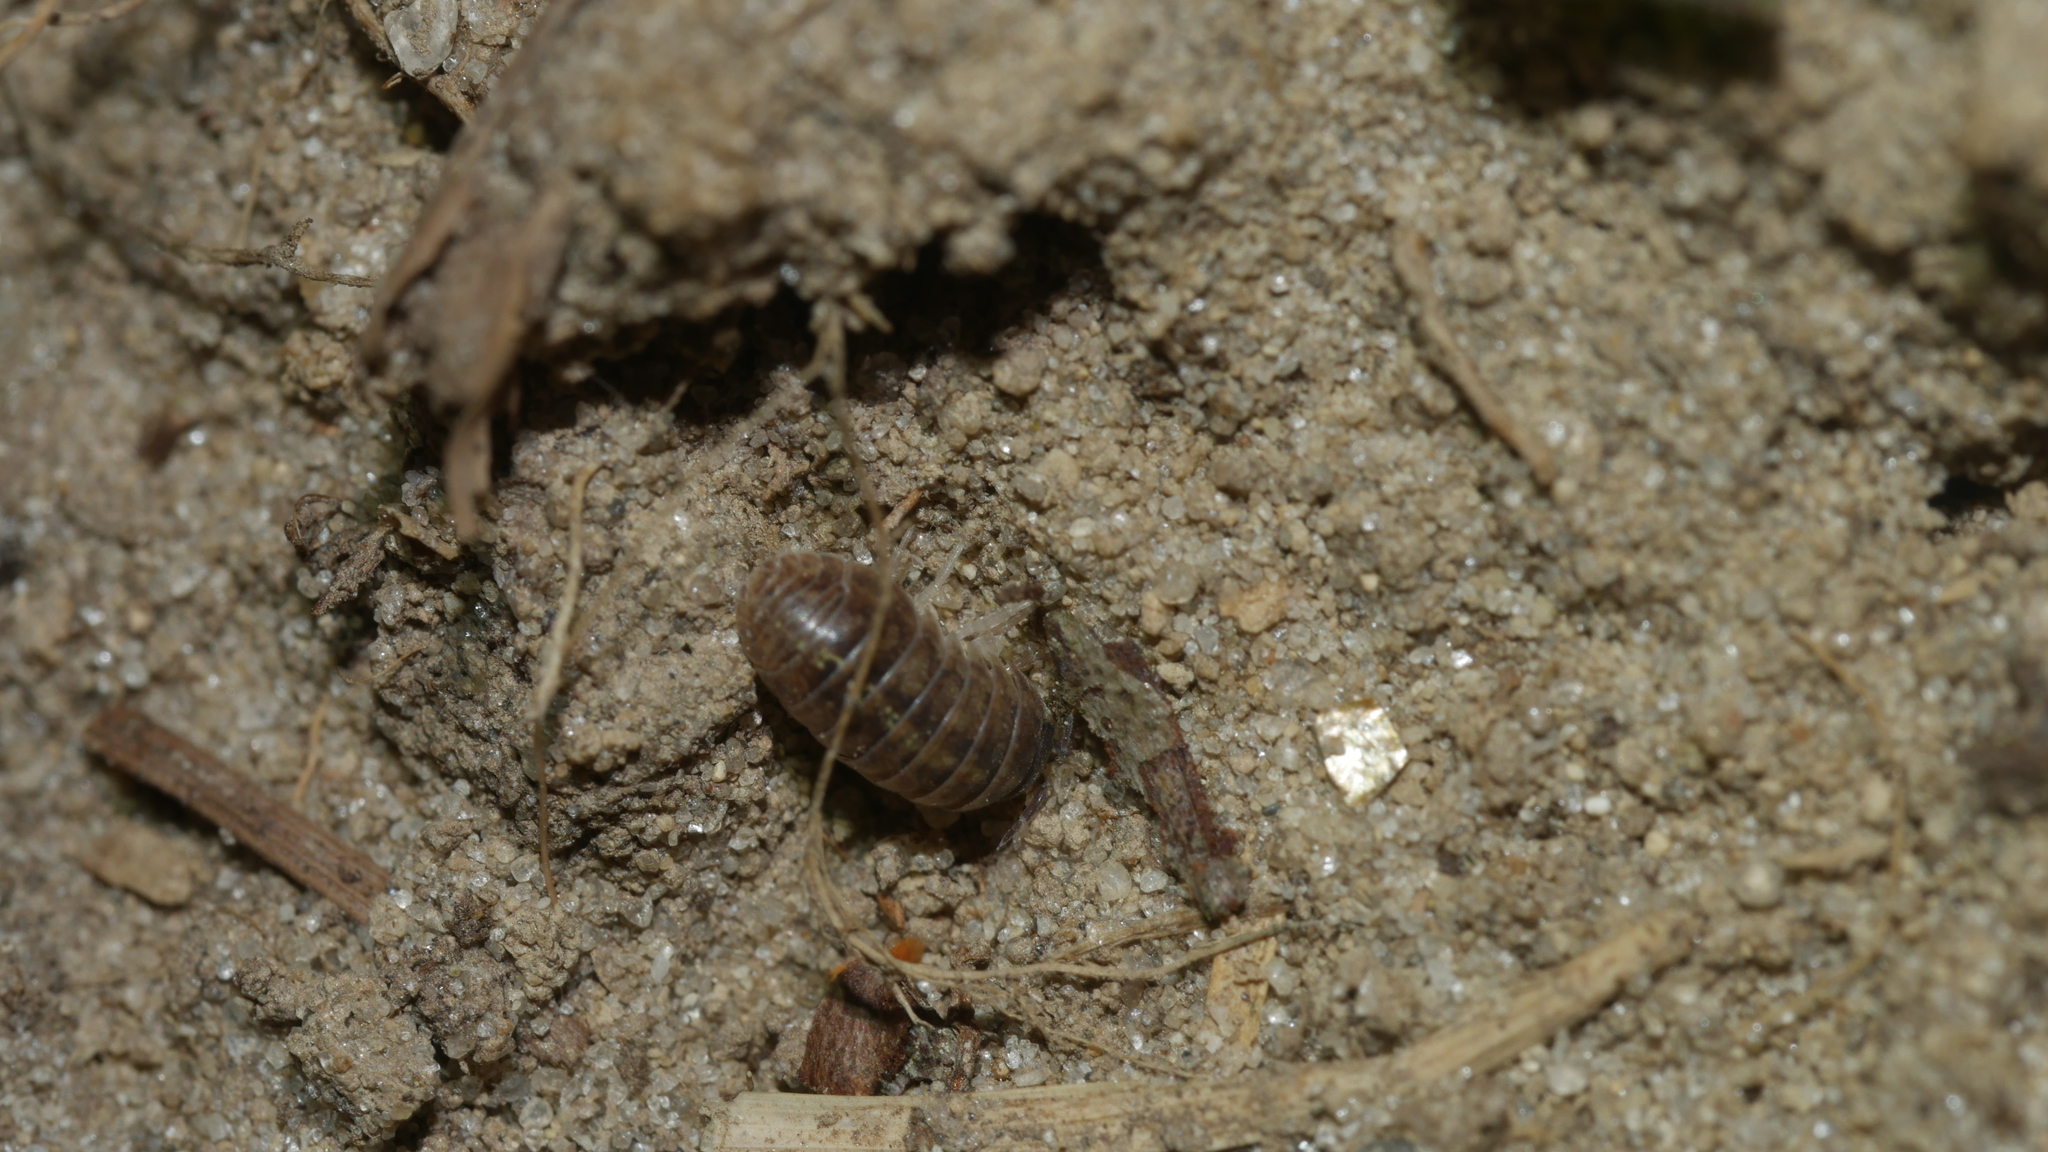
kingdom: Animalia
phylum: Arthropoda
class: Malacostraca
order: Isopoda
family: Armadillidiidae
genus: Armadillidium
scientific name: Armadillidium vulgare
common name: Common pill woodlouse
